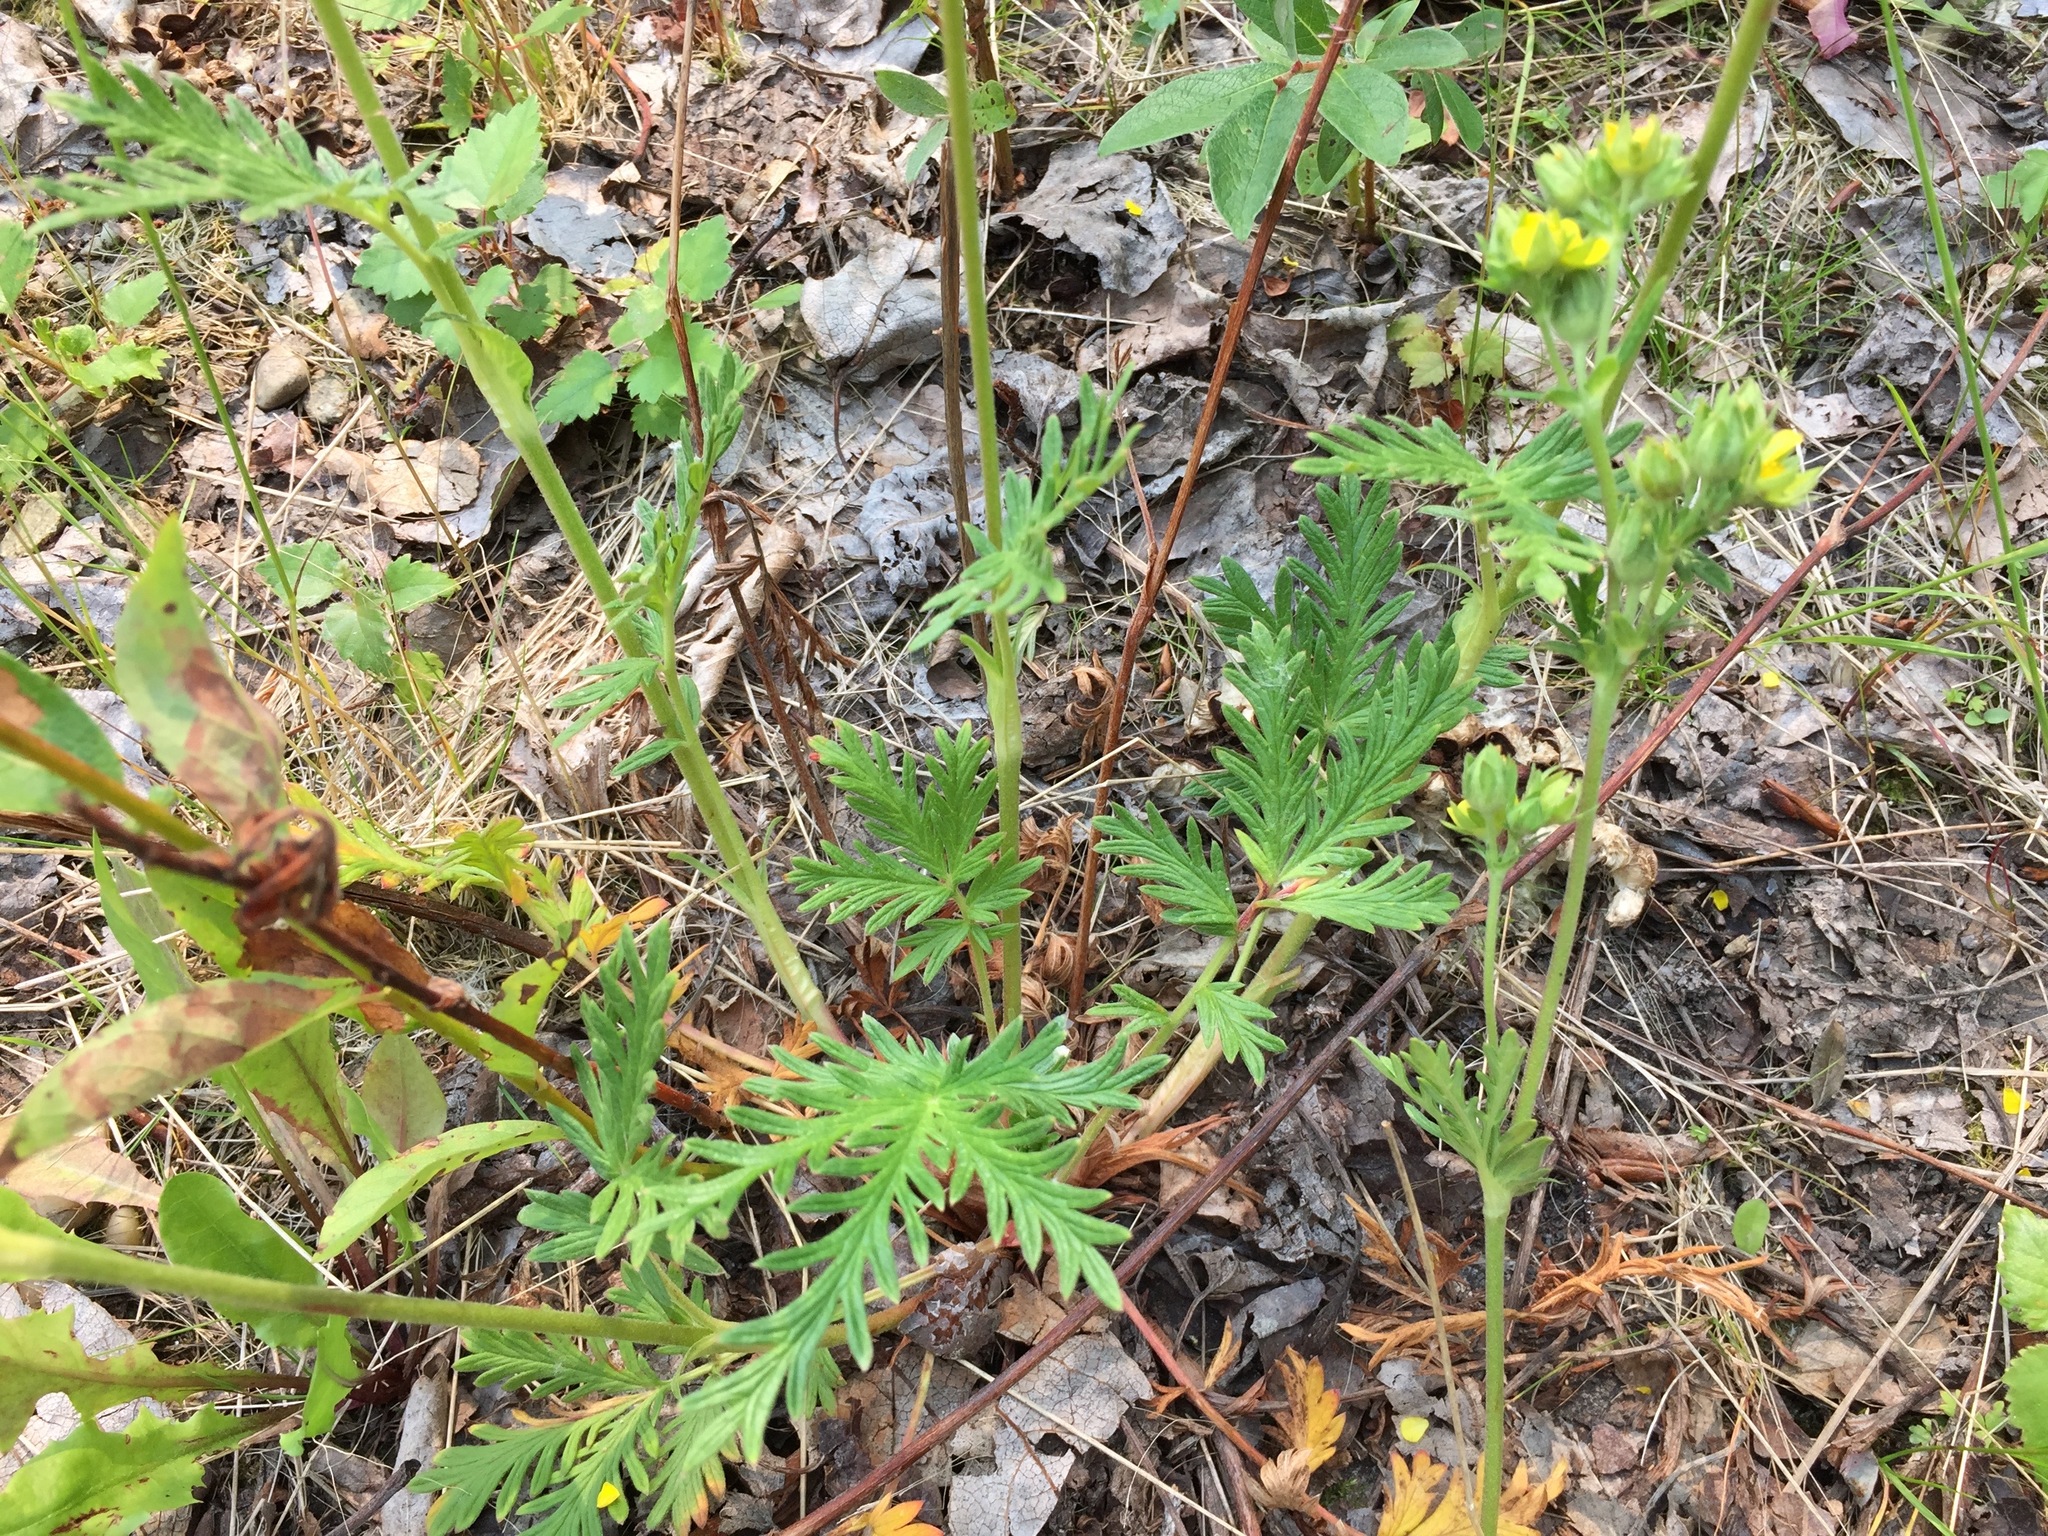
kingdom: Plantae
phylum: Tracheophyta
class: Magnoliopsida
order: Rosales
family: Rosaceae
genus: Potentilla
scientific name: Potentilla litoralis
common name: Coast cinquefoil
